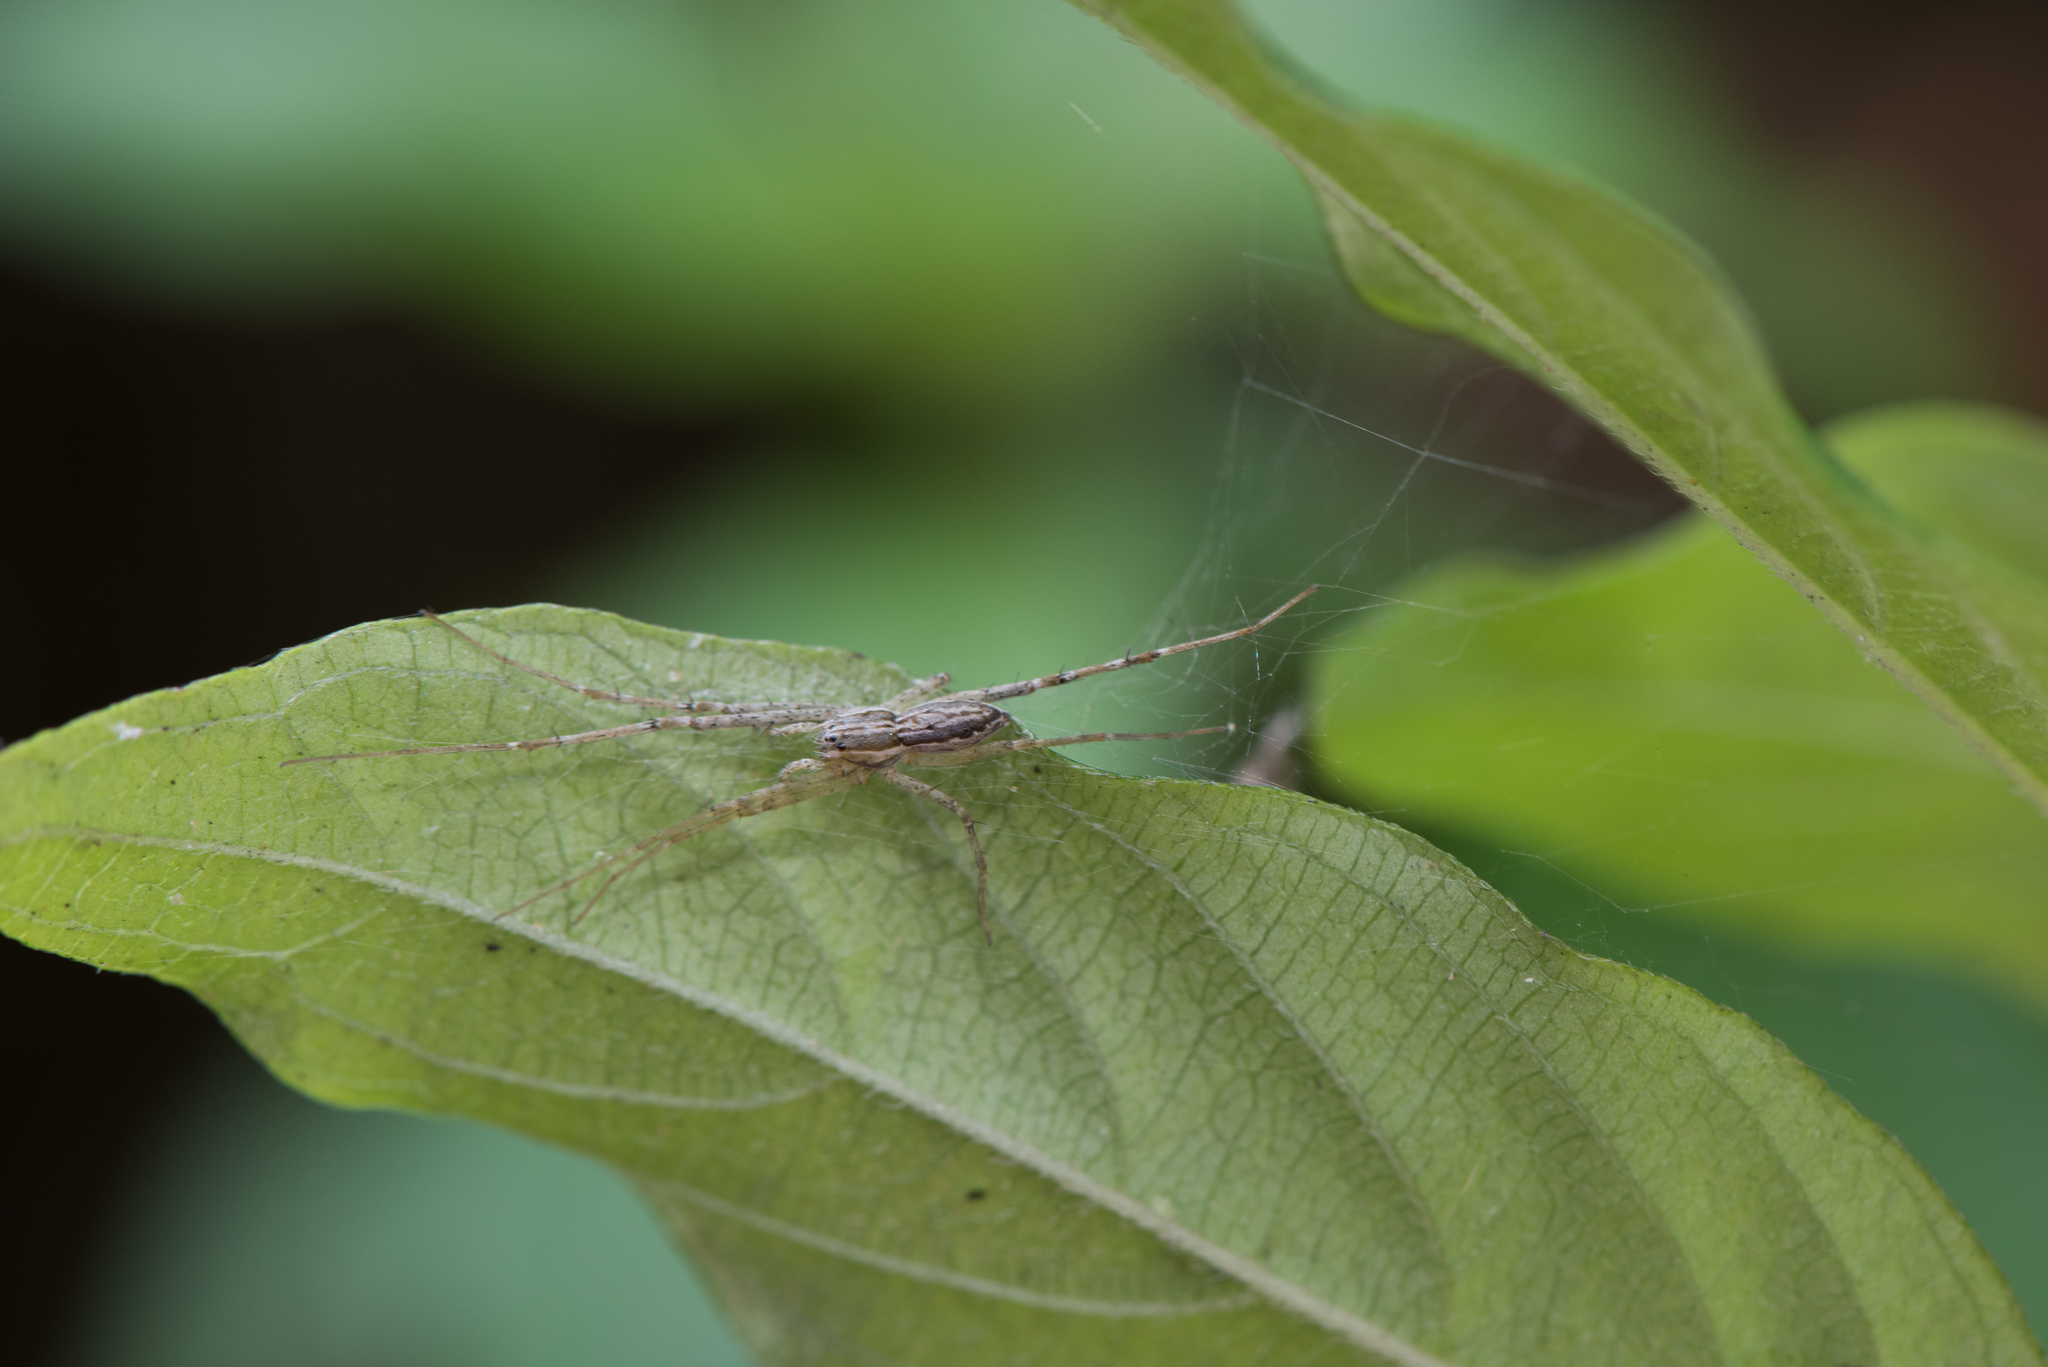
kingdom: Animalia
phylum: Arthropoda
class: Arachnida
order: Araneae
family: Pisauridae
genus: Hygropoda
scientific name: Hygropoda higenaga
